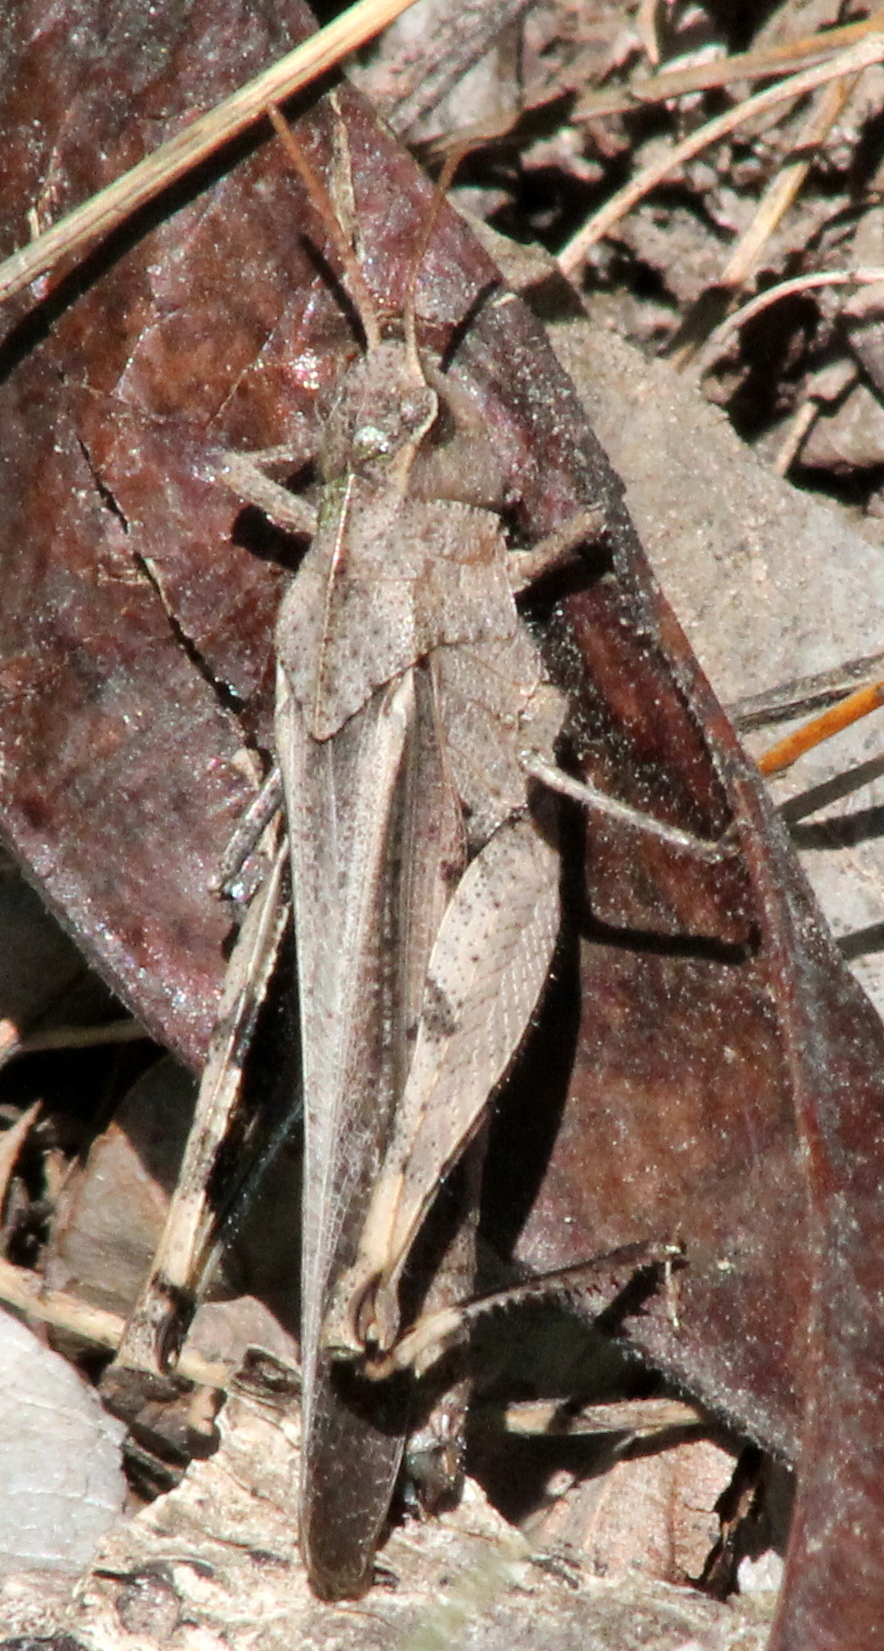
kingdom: Animalia
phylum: Arthropoda
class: Insecta
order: Orthoptera
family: Acrididae
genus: Chortophaga
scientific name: Chortophaga viridifasciata
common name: Green-striped grasshopper
